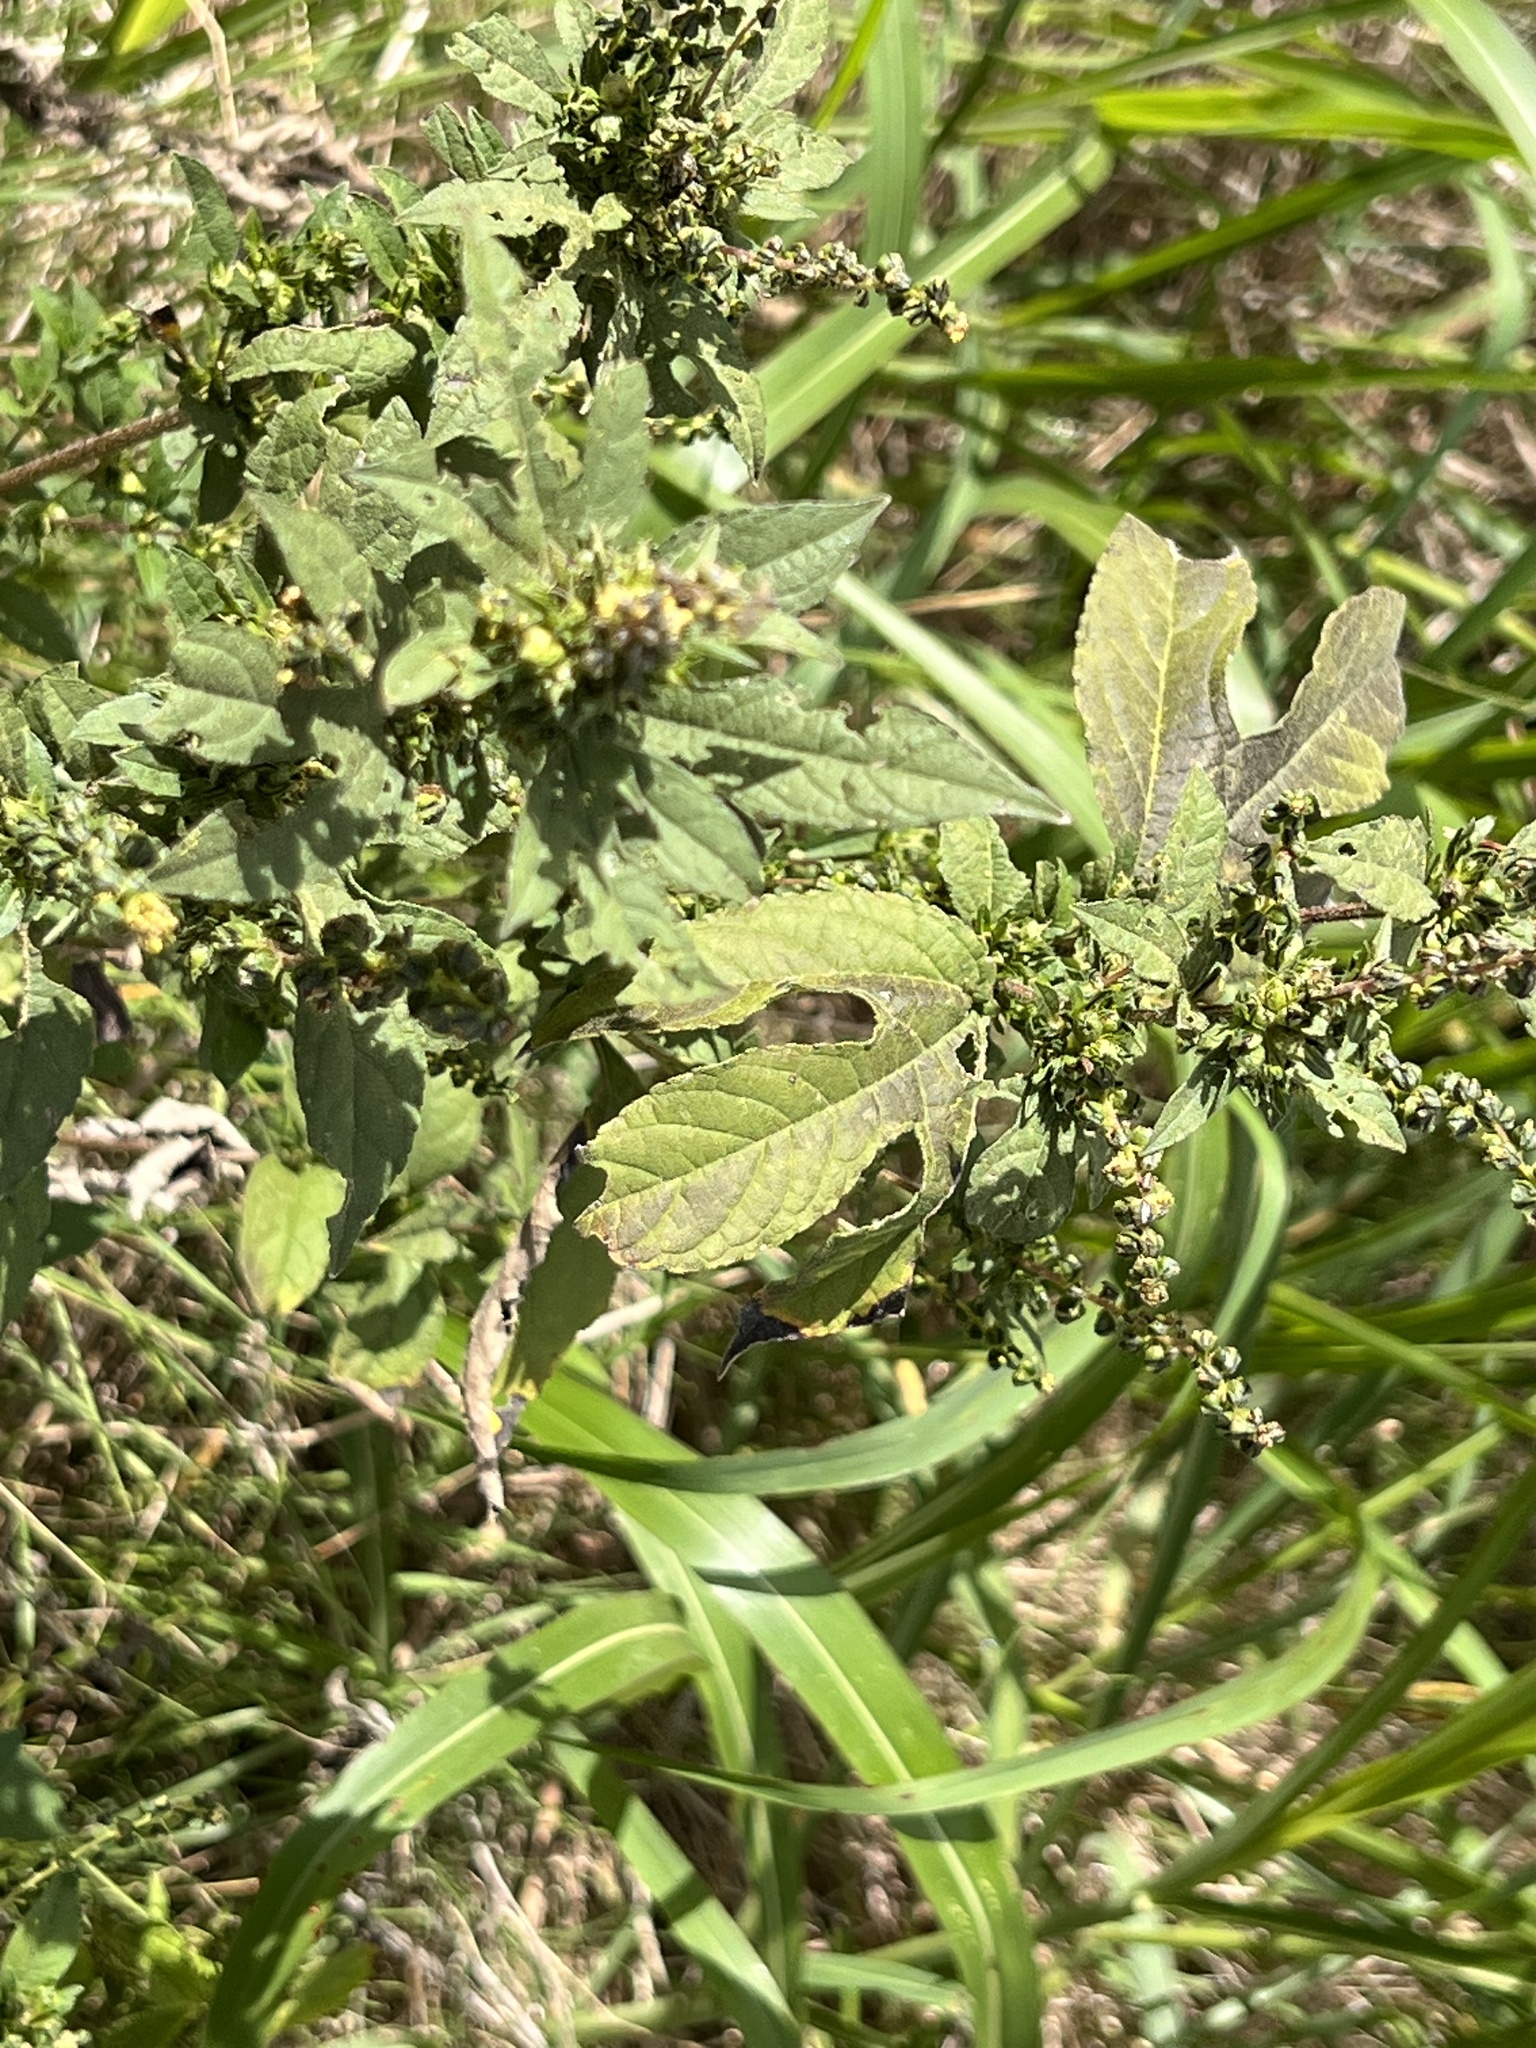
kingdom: Plantae
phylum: Tracheophyta
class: Magnoliopsida
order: Asterales
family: Asteraceae
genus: Ambrosia
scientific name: Ambrosia trifida
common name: Giant ragweed
